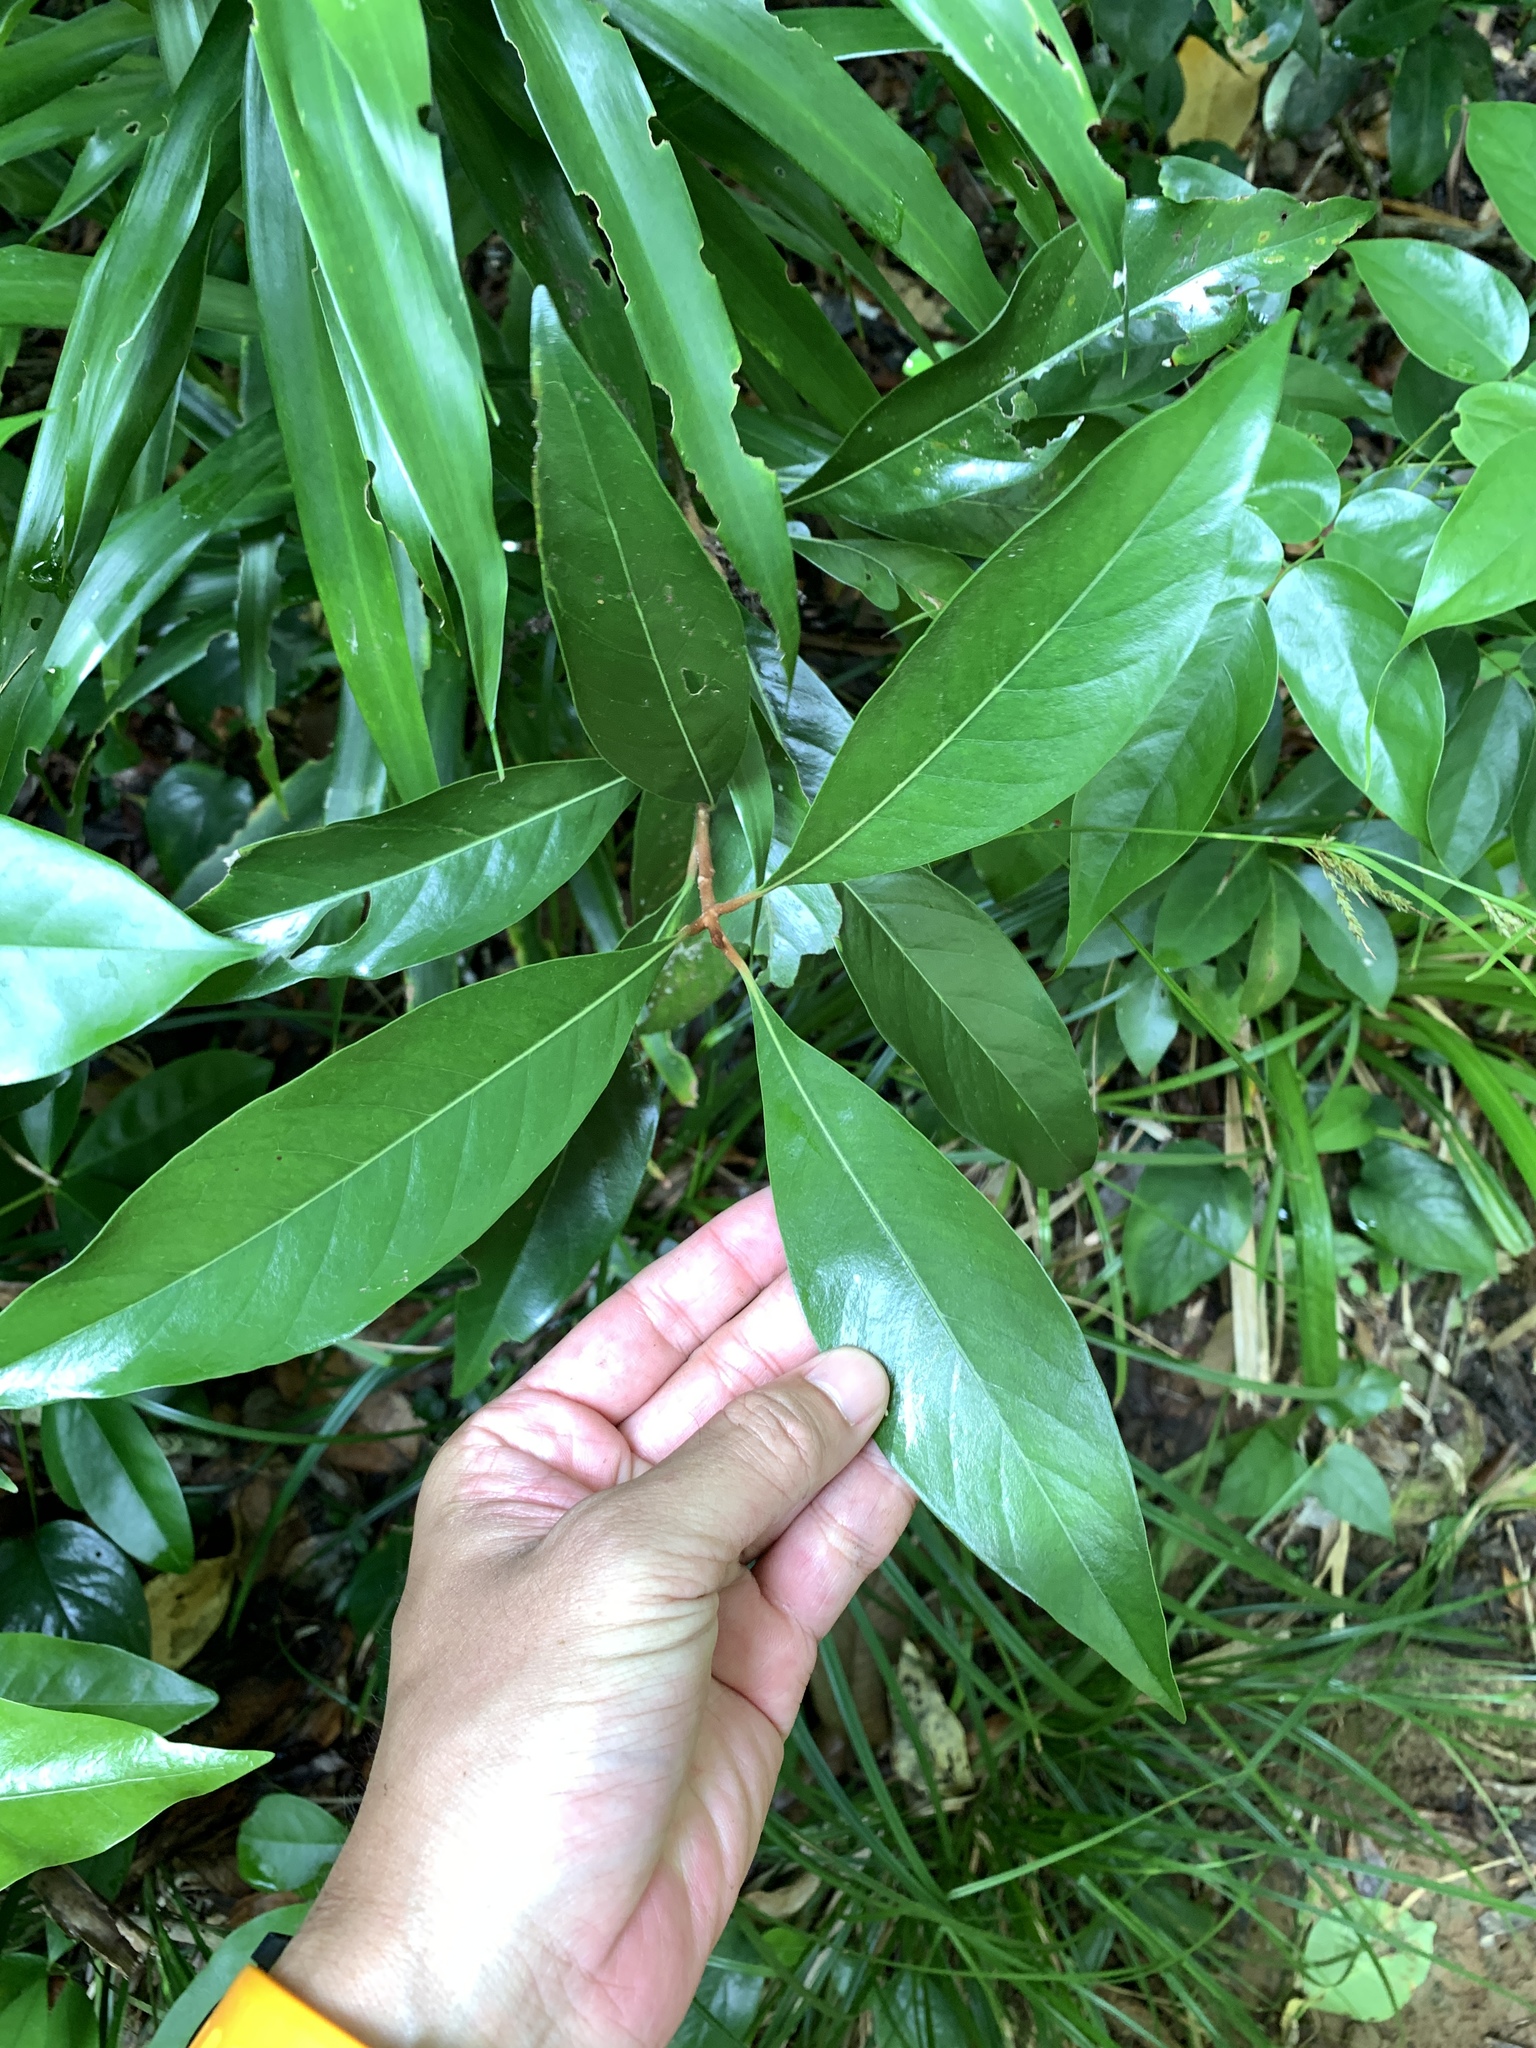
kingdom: Plantae
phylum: Tracheophyta
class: Magnoliopsida
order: Ericales
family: Sapotaceae
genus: Planchonella
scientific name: Planchonella obovata
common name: Black-ash
